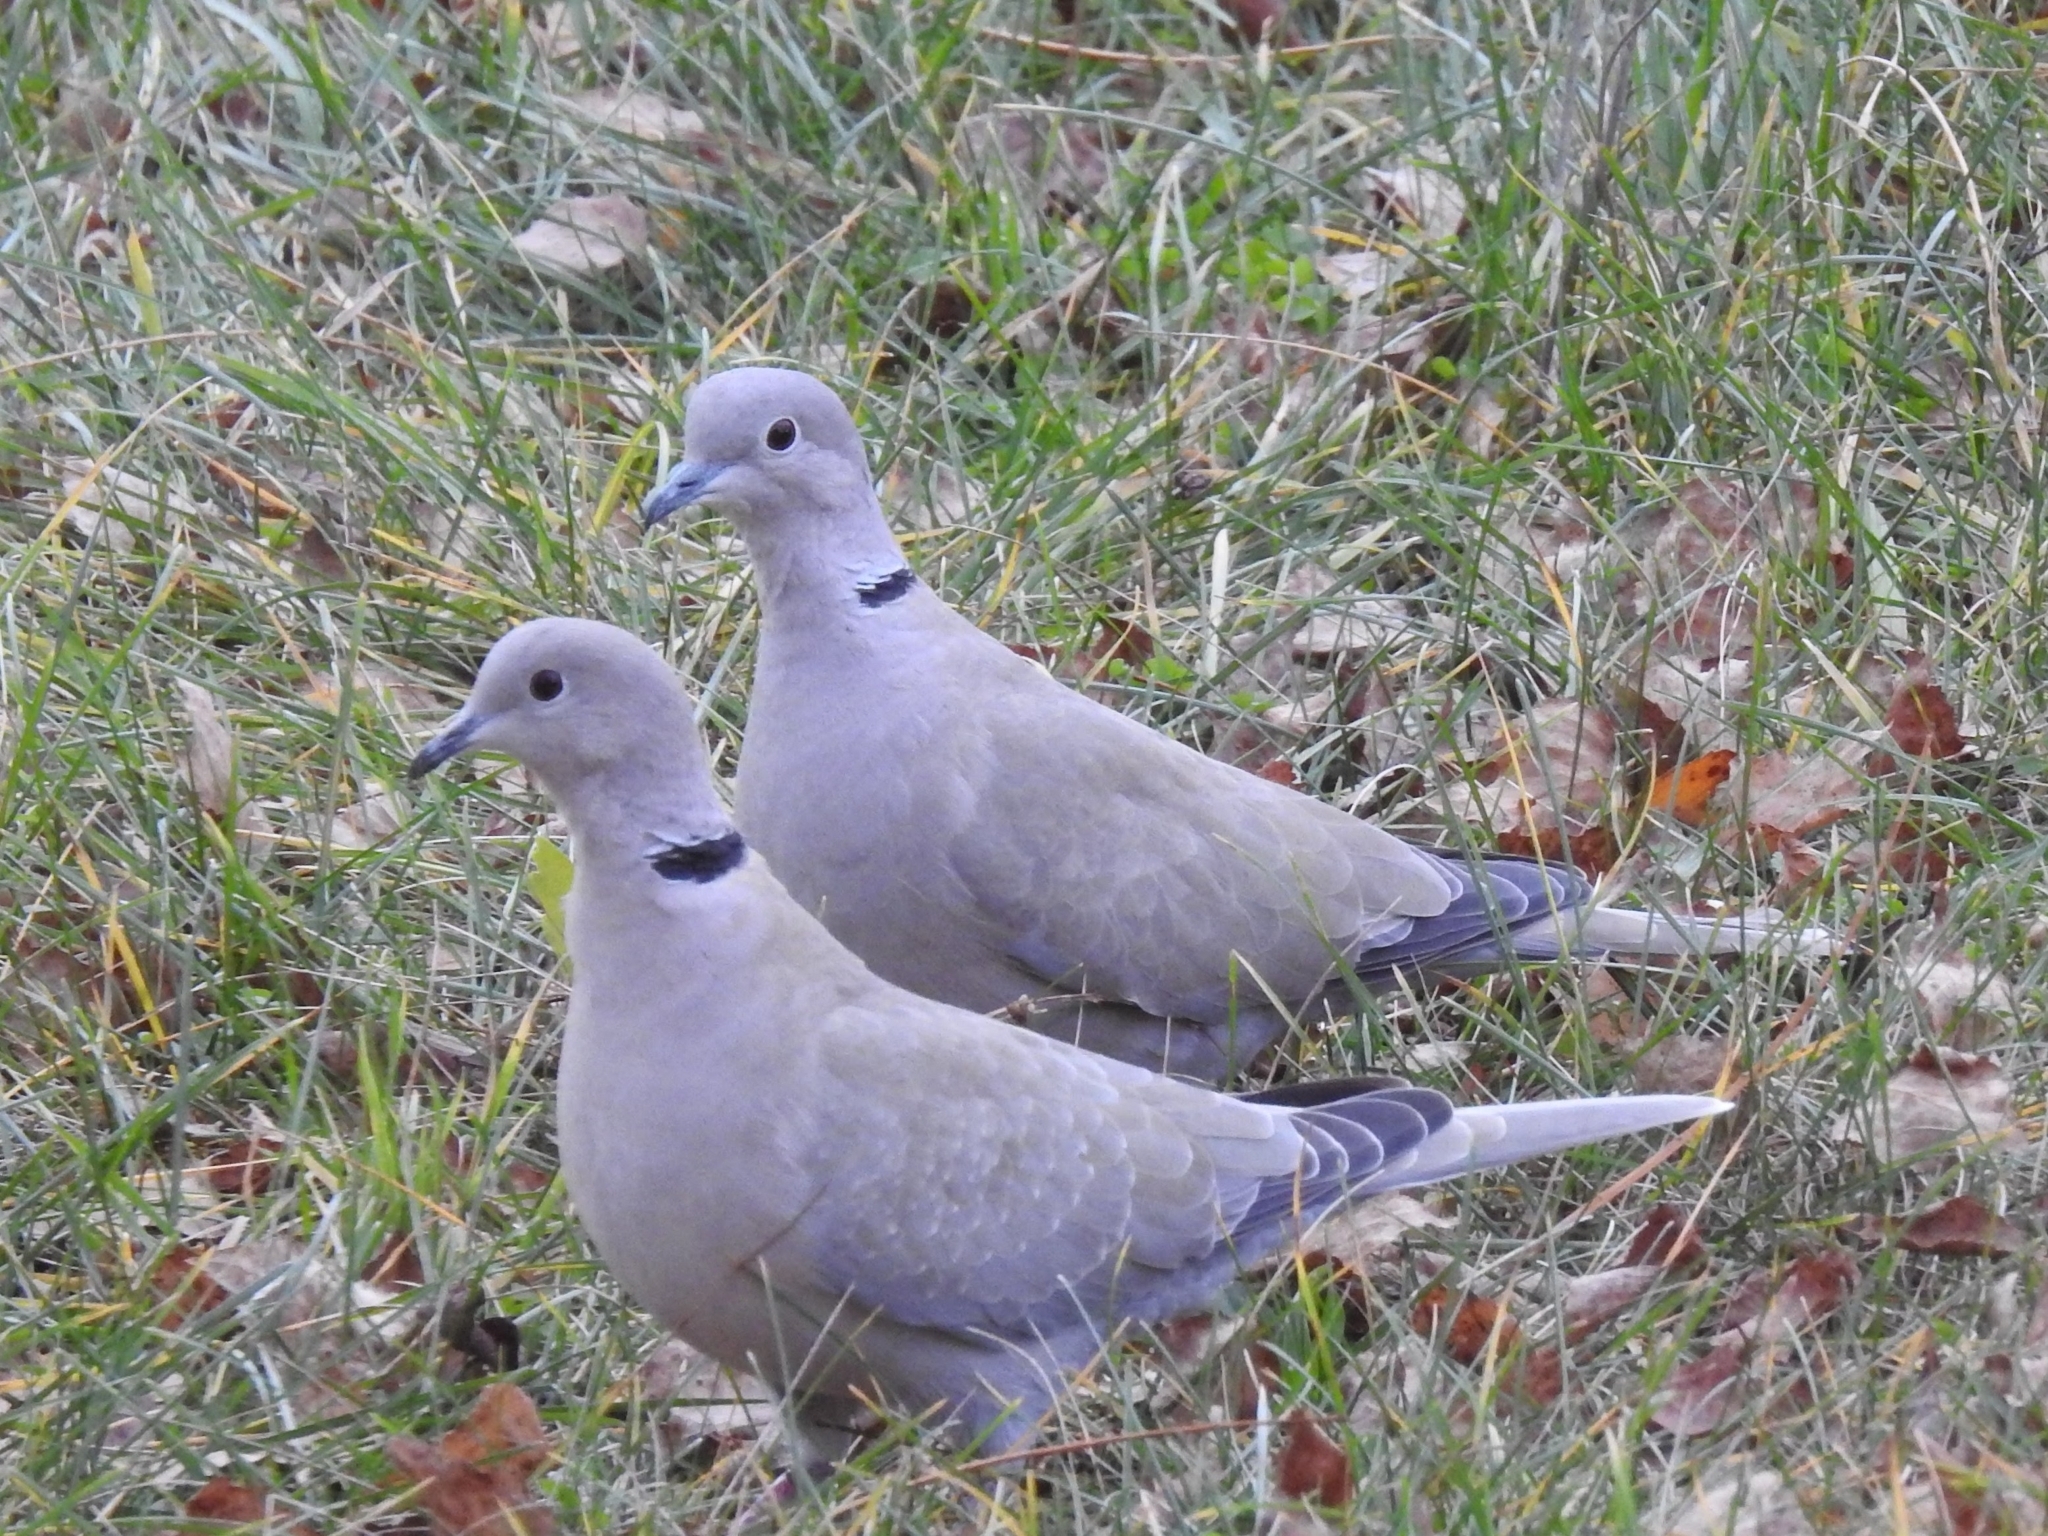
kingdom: Animalia
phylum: Chordata
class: Aves
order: Columbiformes
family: Columbidae
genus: Streptopelia
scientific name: Streptopelia decaocto
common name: Eurasian collared dove
